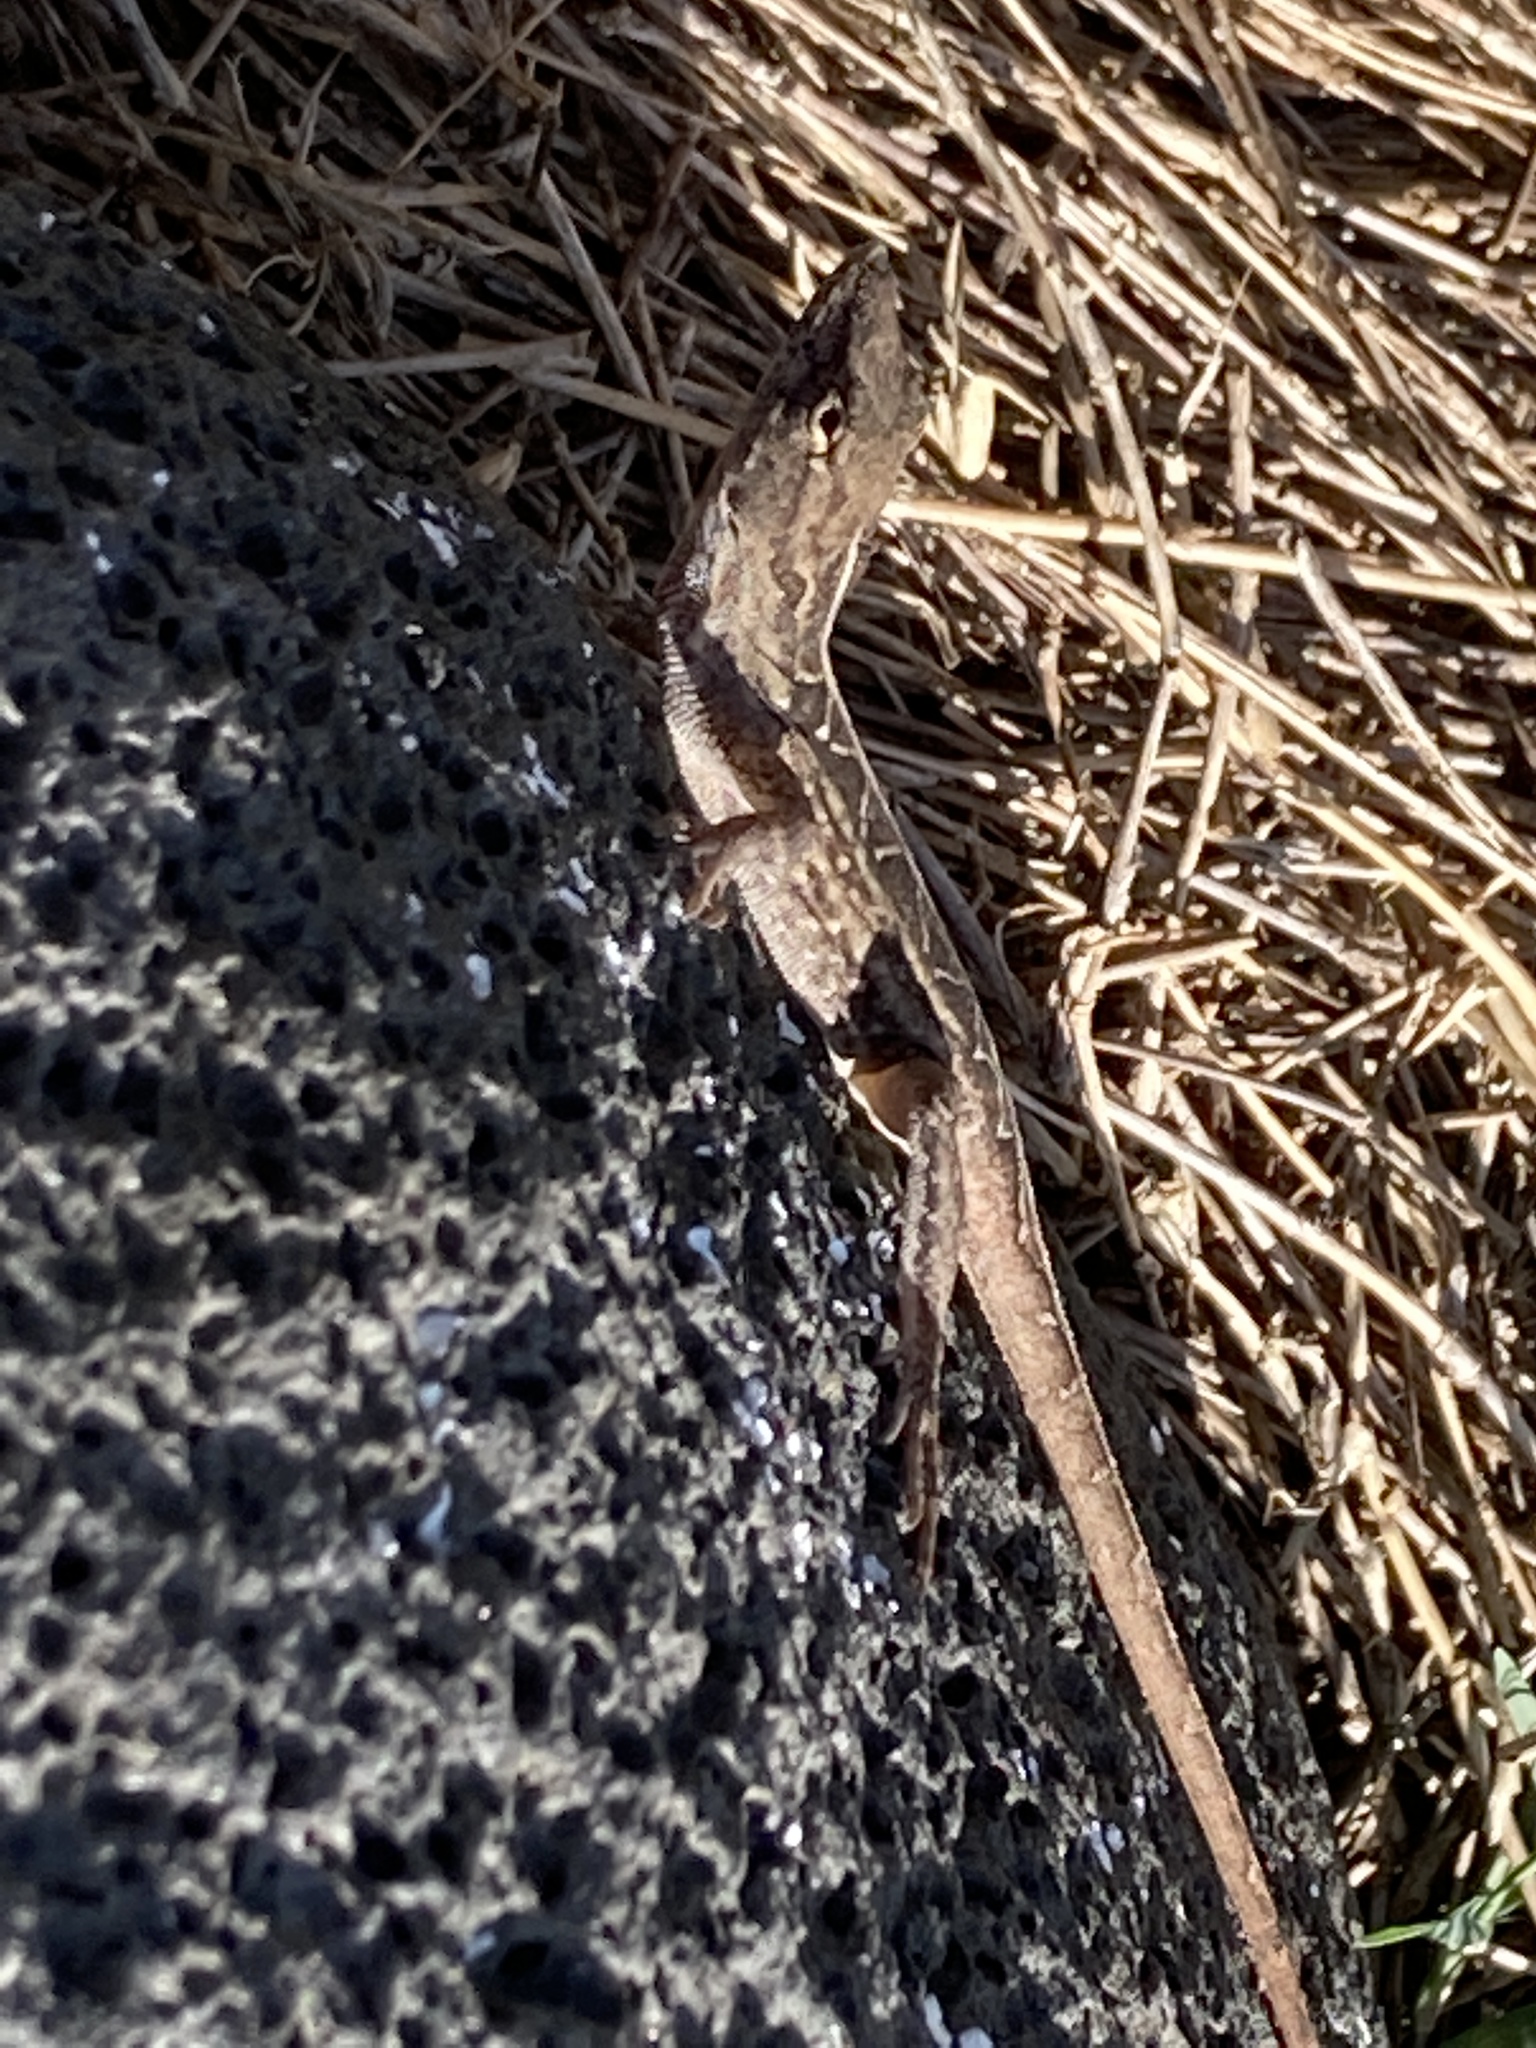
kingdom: Animalia
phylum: Chordata
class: Squamata
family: Dactyloidae
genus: Anolis
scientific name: Anolis sagrei
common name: Brown anole
